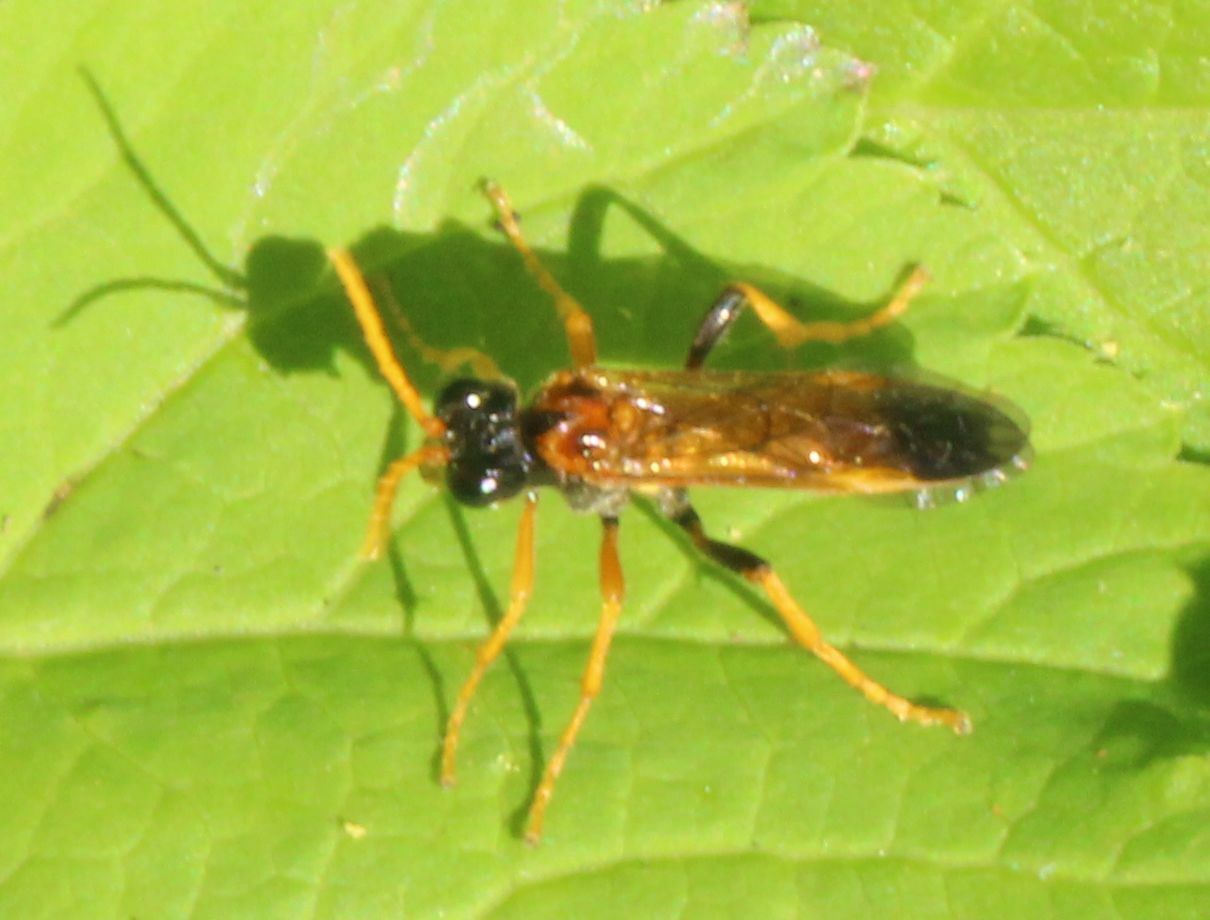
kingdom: Animalia
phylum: Arthropoda
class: Insecta
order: Hymenoptera
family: Tenthredinidae
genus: Tenthredo
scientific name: Tenthredo campestris
